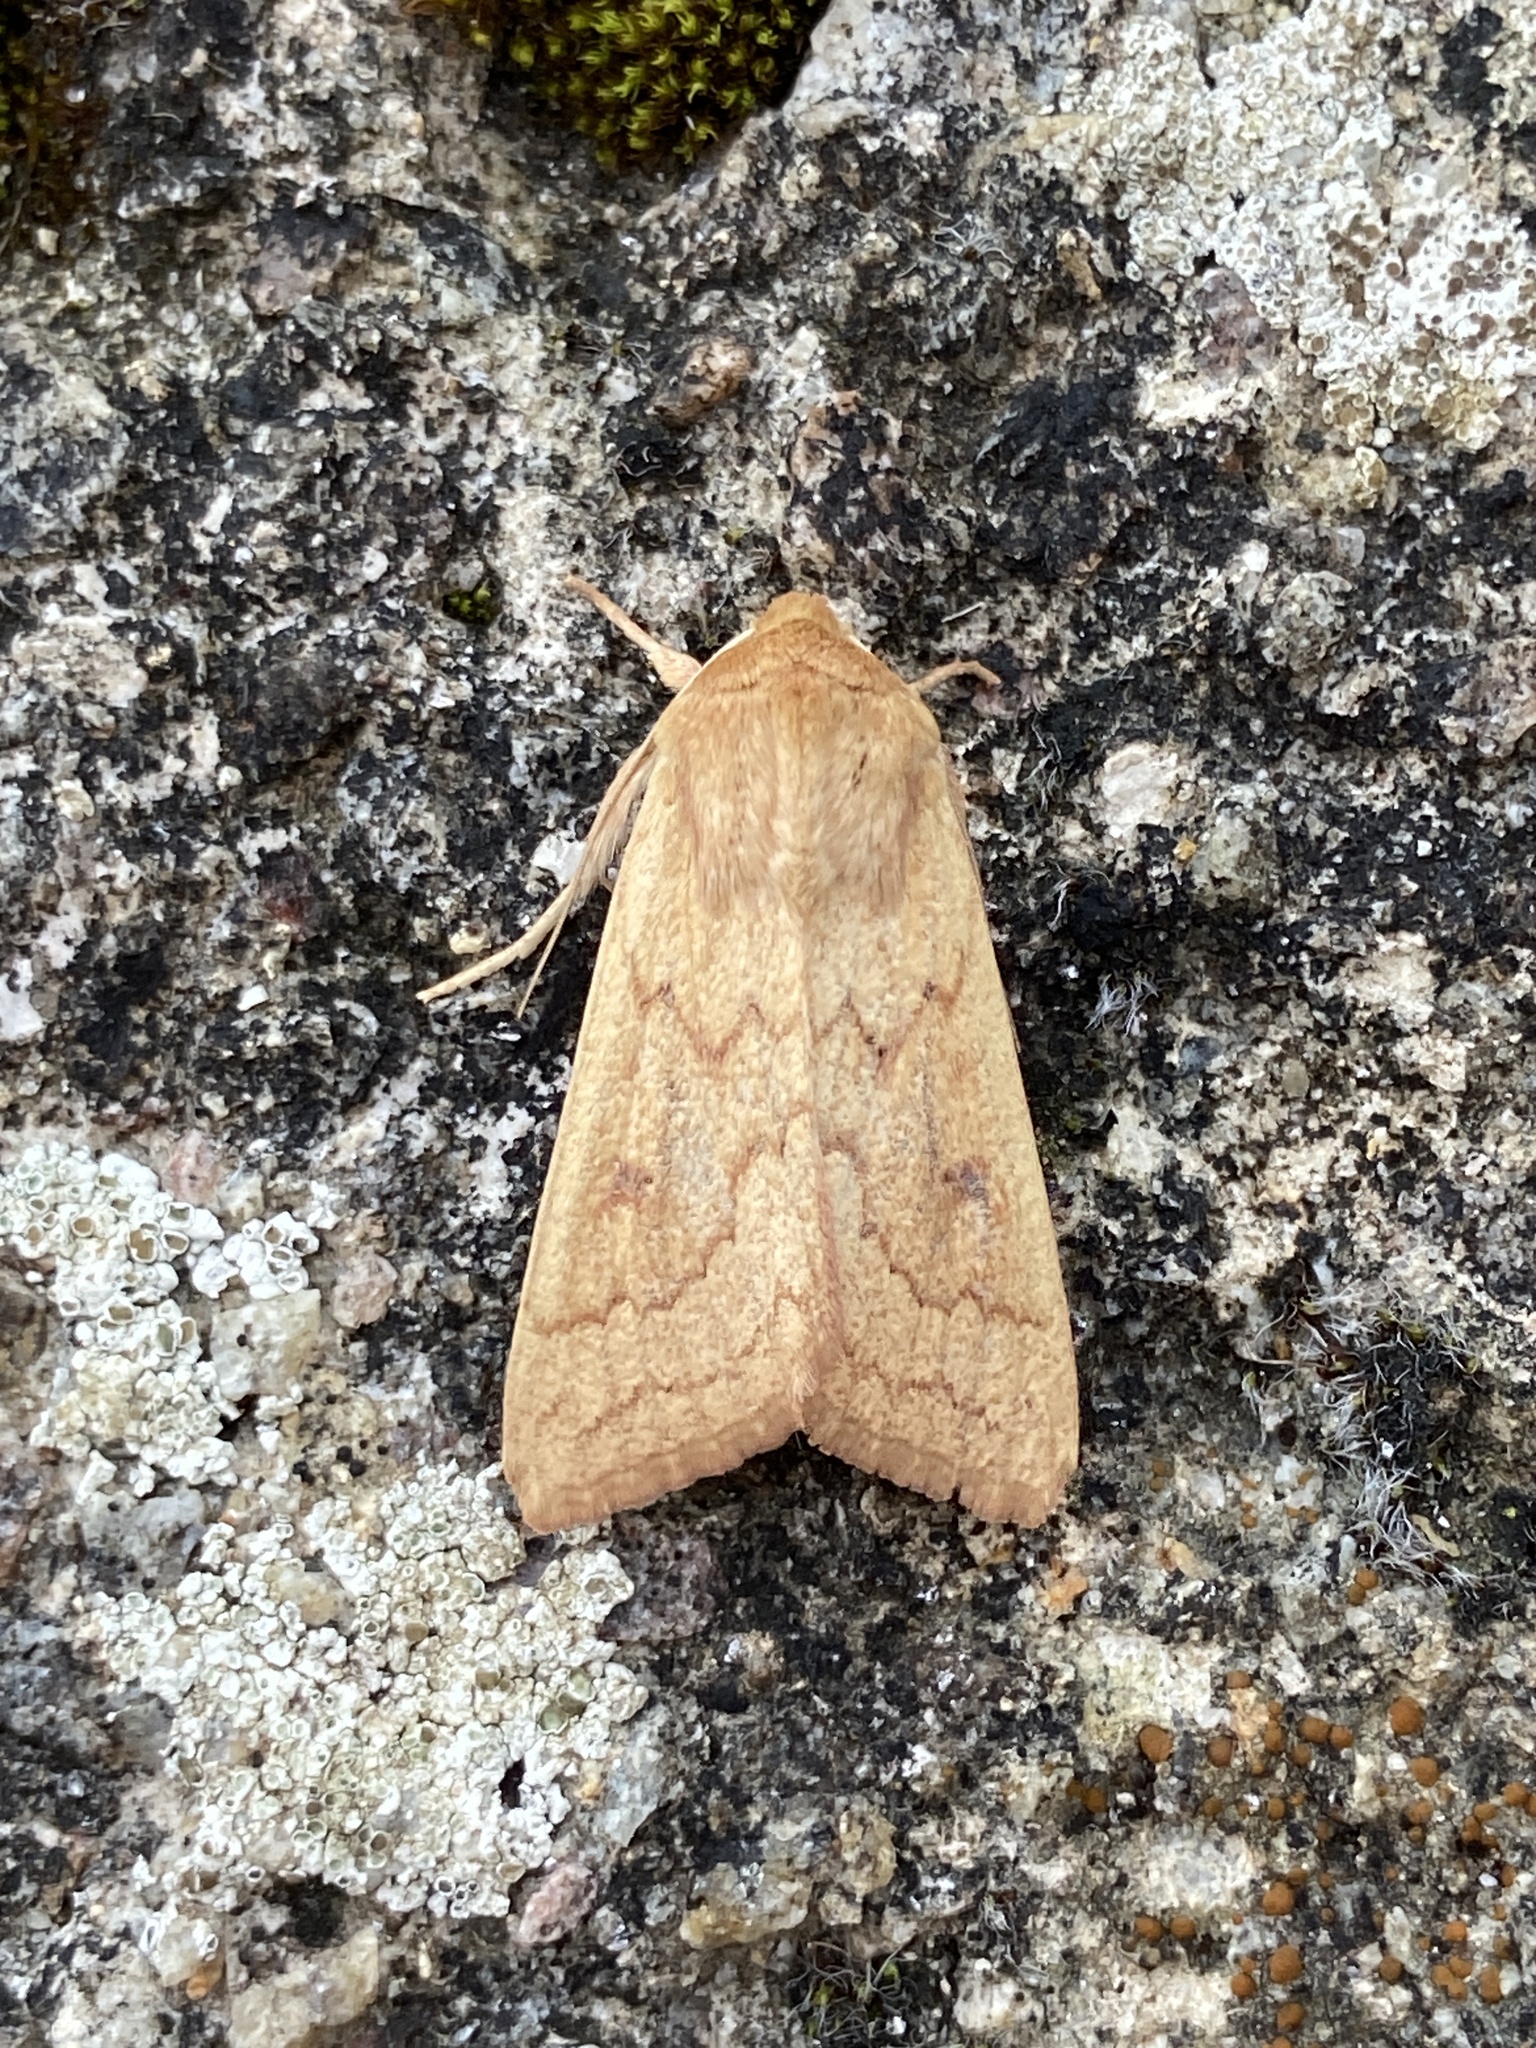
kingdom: Animalia
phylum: Arthropoda
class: Insecta
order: Lepidoptera
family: Noctuidae
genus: Mythimna
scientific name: Mythimna vitellina
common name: Delicate
